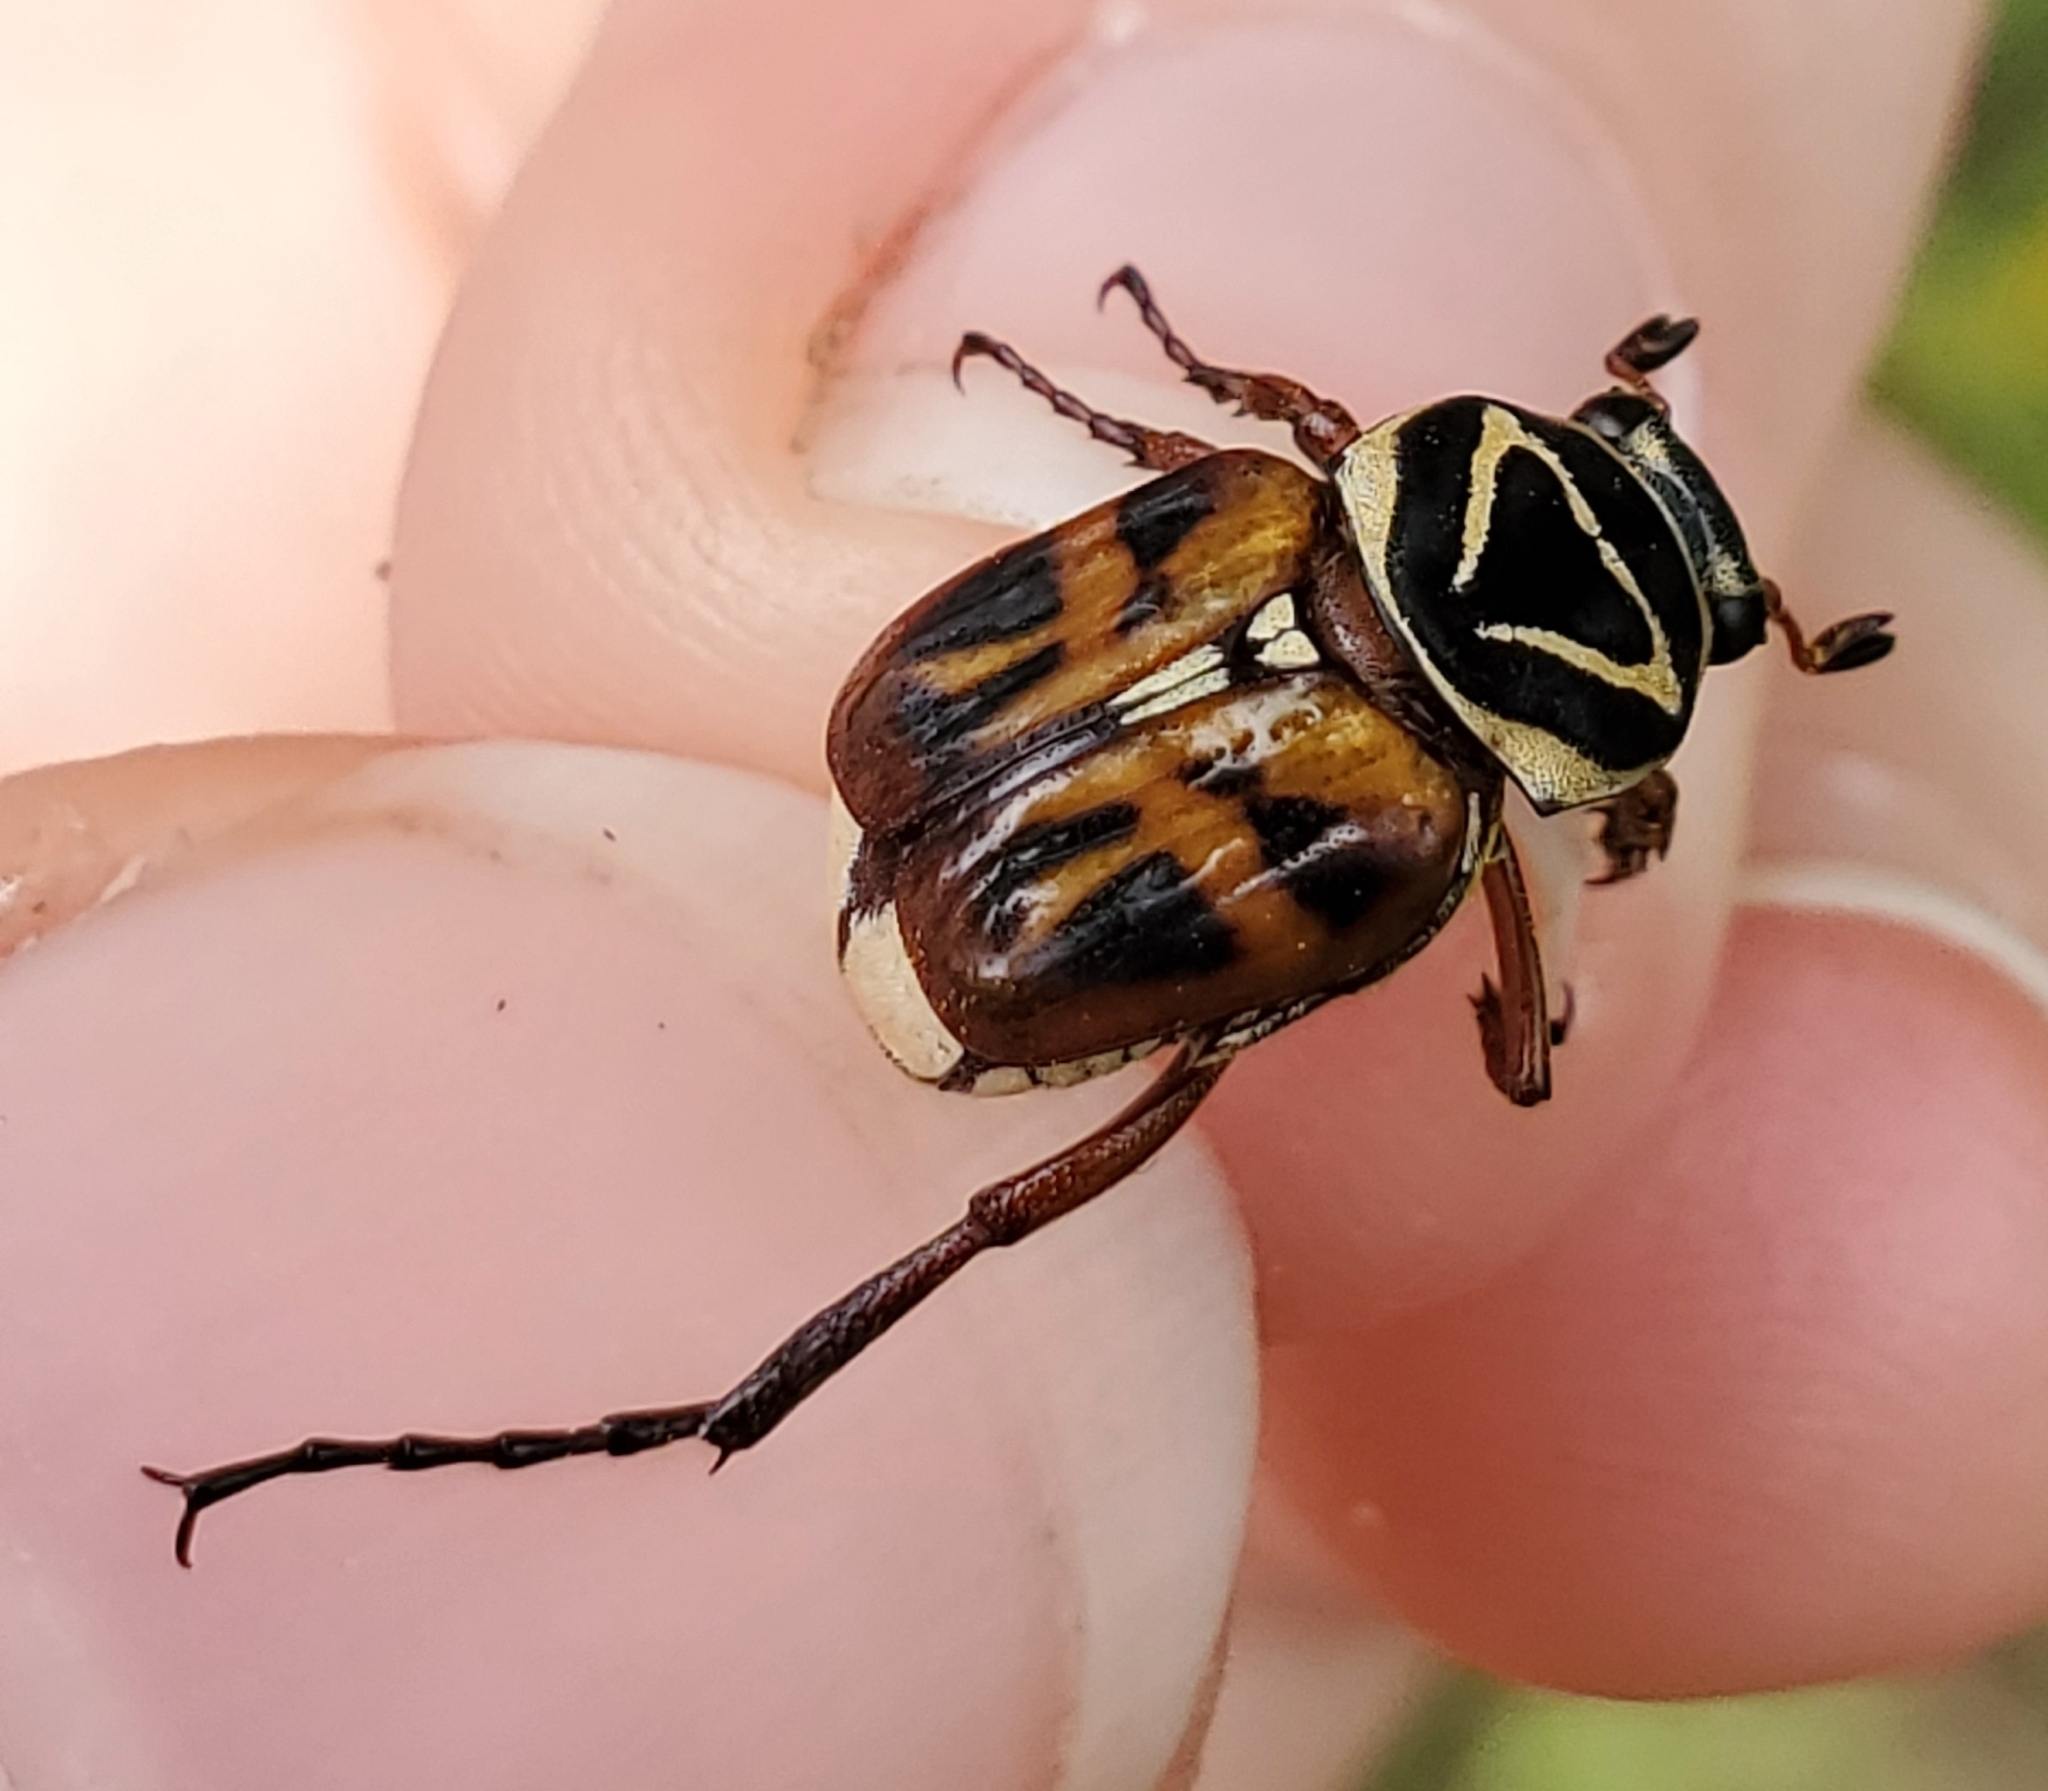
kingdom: Animalia
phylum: Arthropoda
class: Insecta
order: Coleoptera
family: Scarabaeidae
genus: Trigonopeltastes
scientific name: Trigonopeltastes delta
